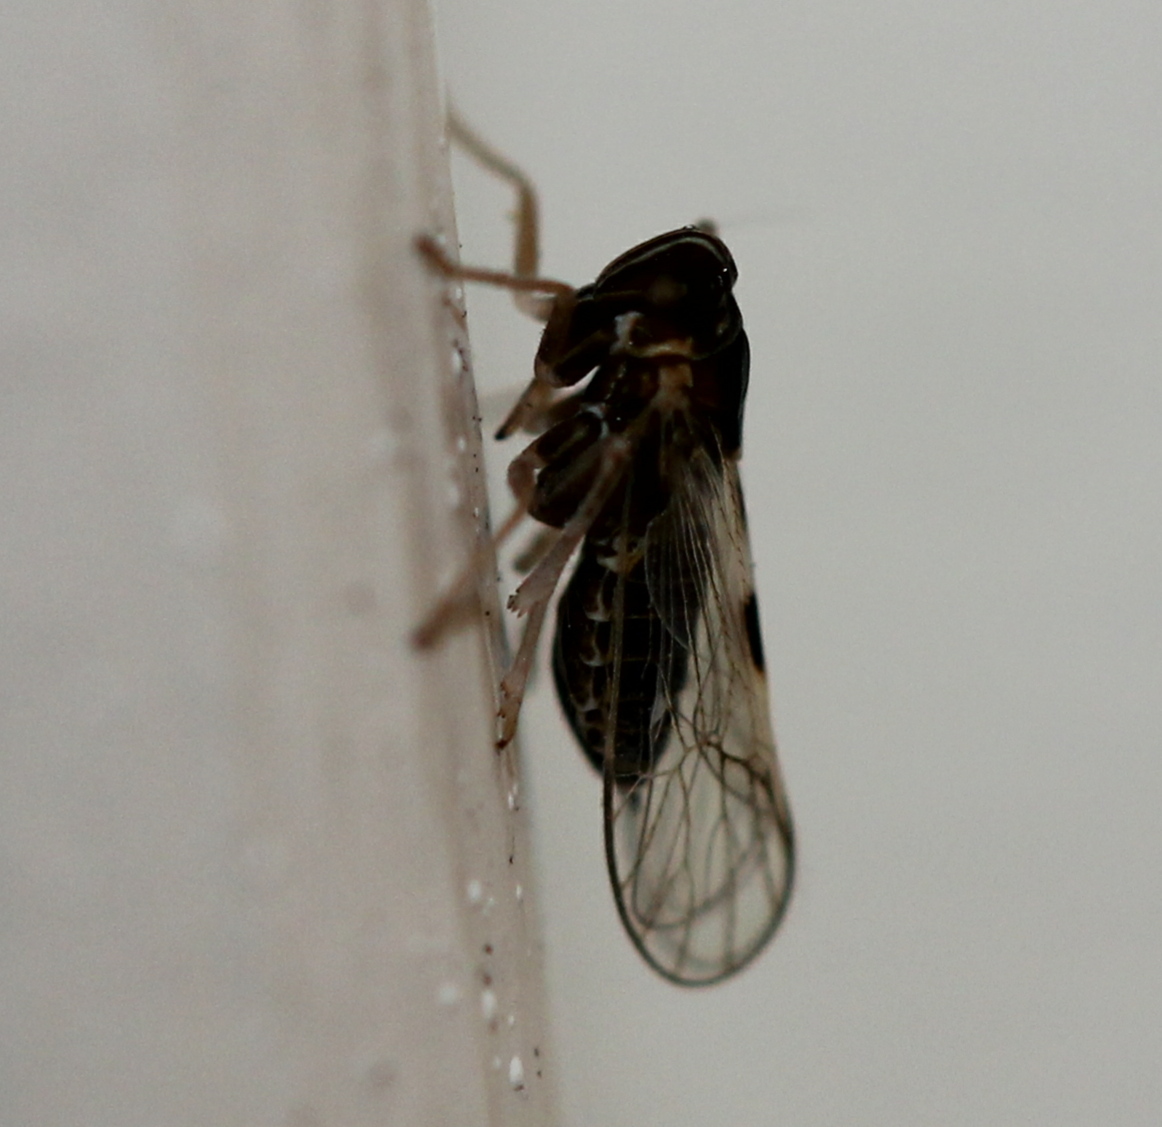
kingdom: Animalia
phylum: Arthropoda
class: Insecta
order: Hemiptera
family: Delphacidae
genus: Chionomus
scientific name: Chionomus
